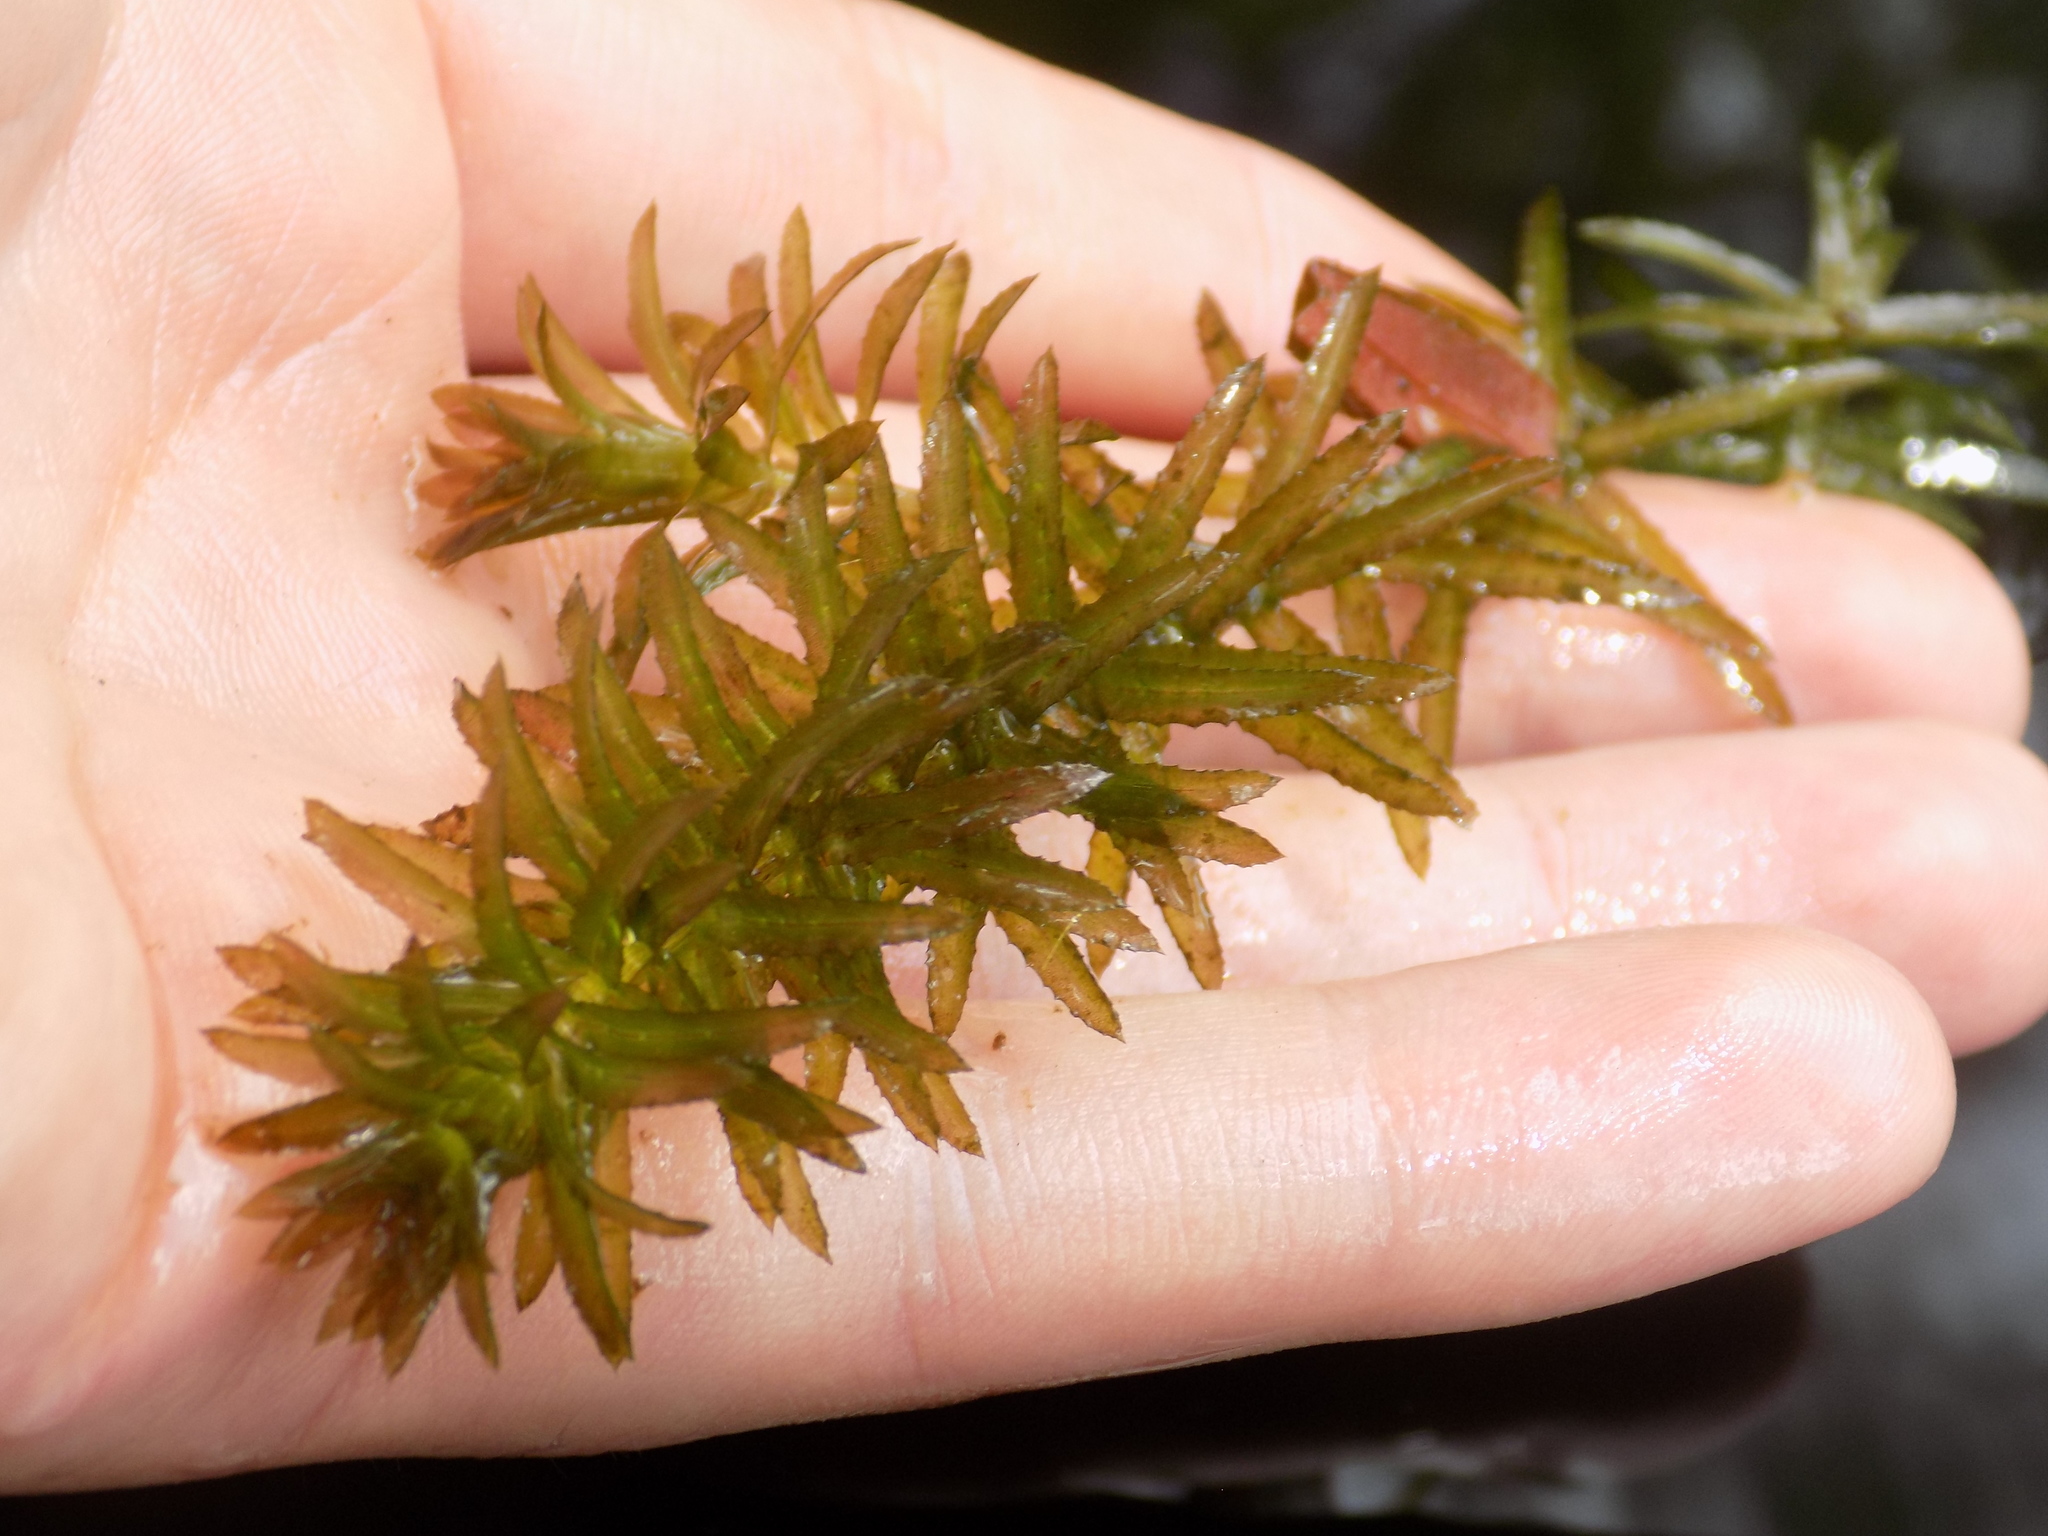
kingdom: Plantae
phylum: Tracheophyta
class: Liliopsida
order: Alismatales
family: Hydrocharitaceae
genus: Hydrilla
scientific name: Hydrilla verticillata
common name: Florida-elodea
